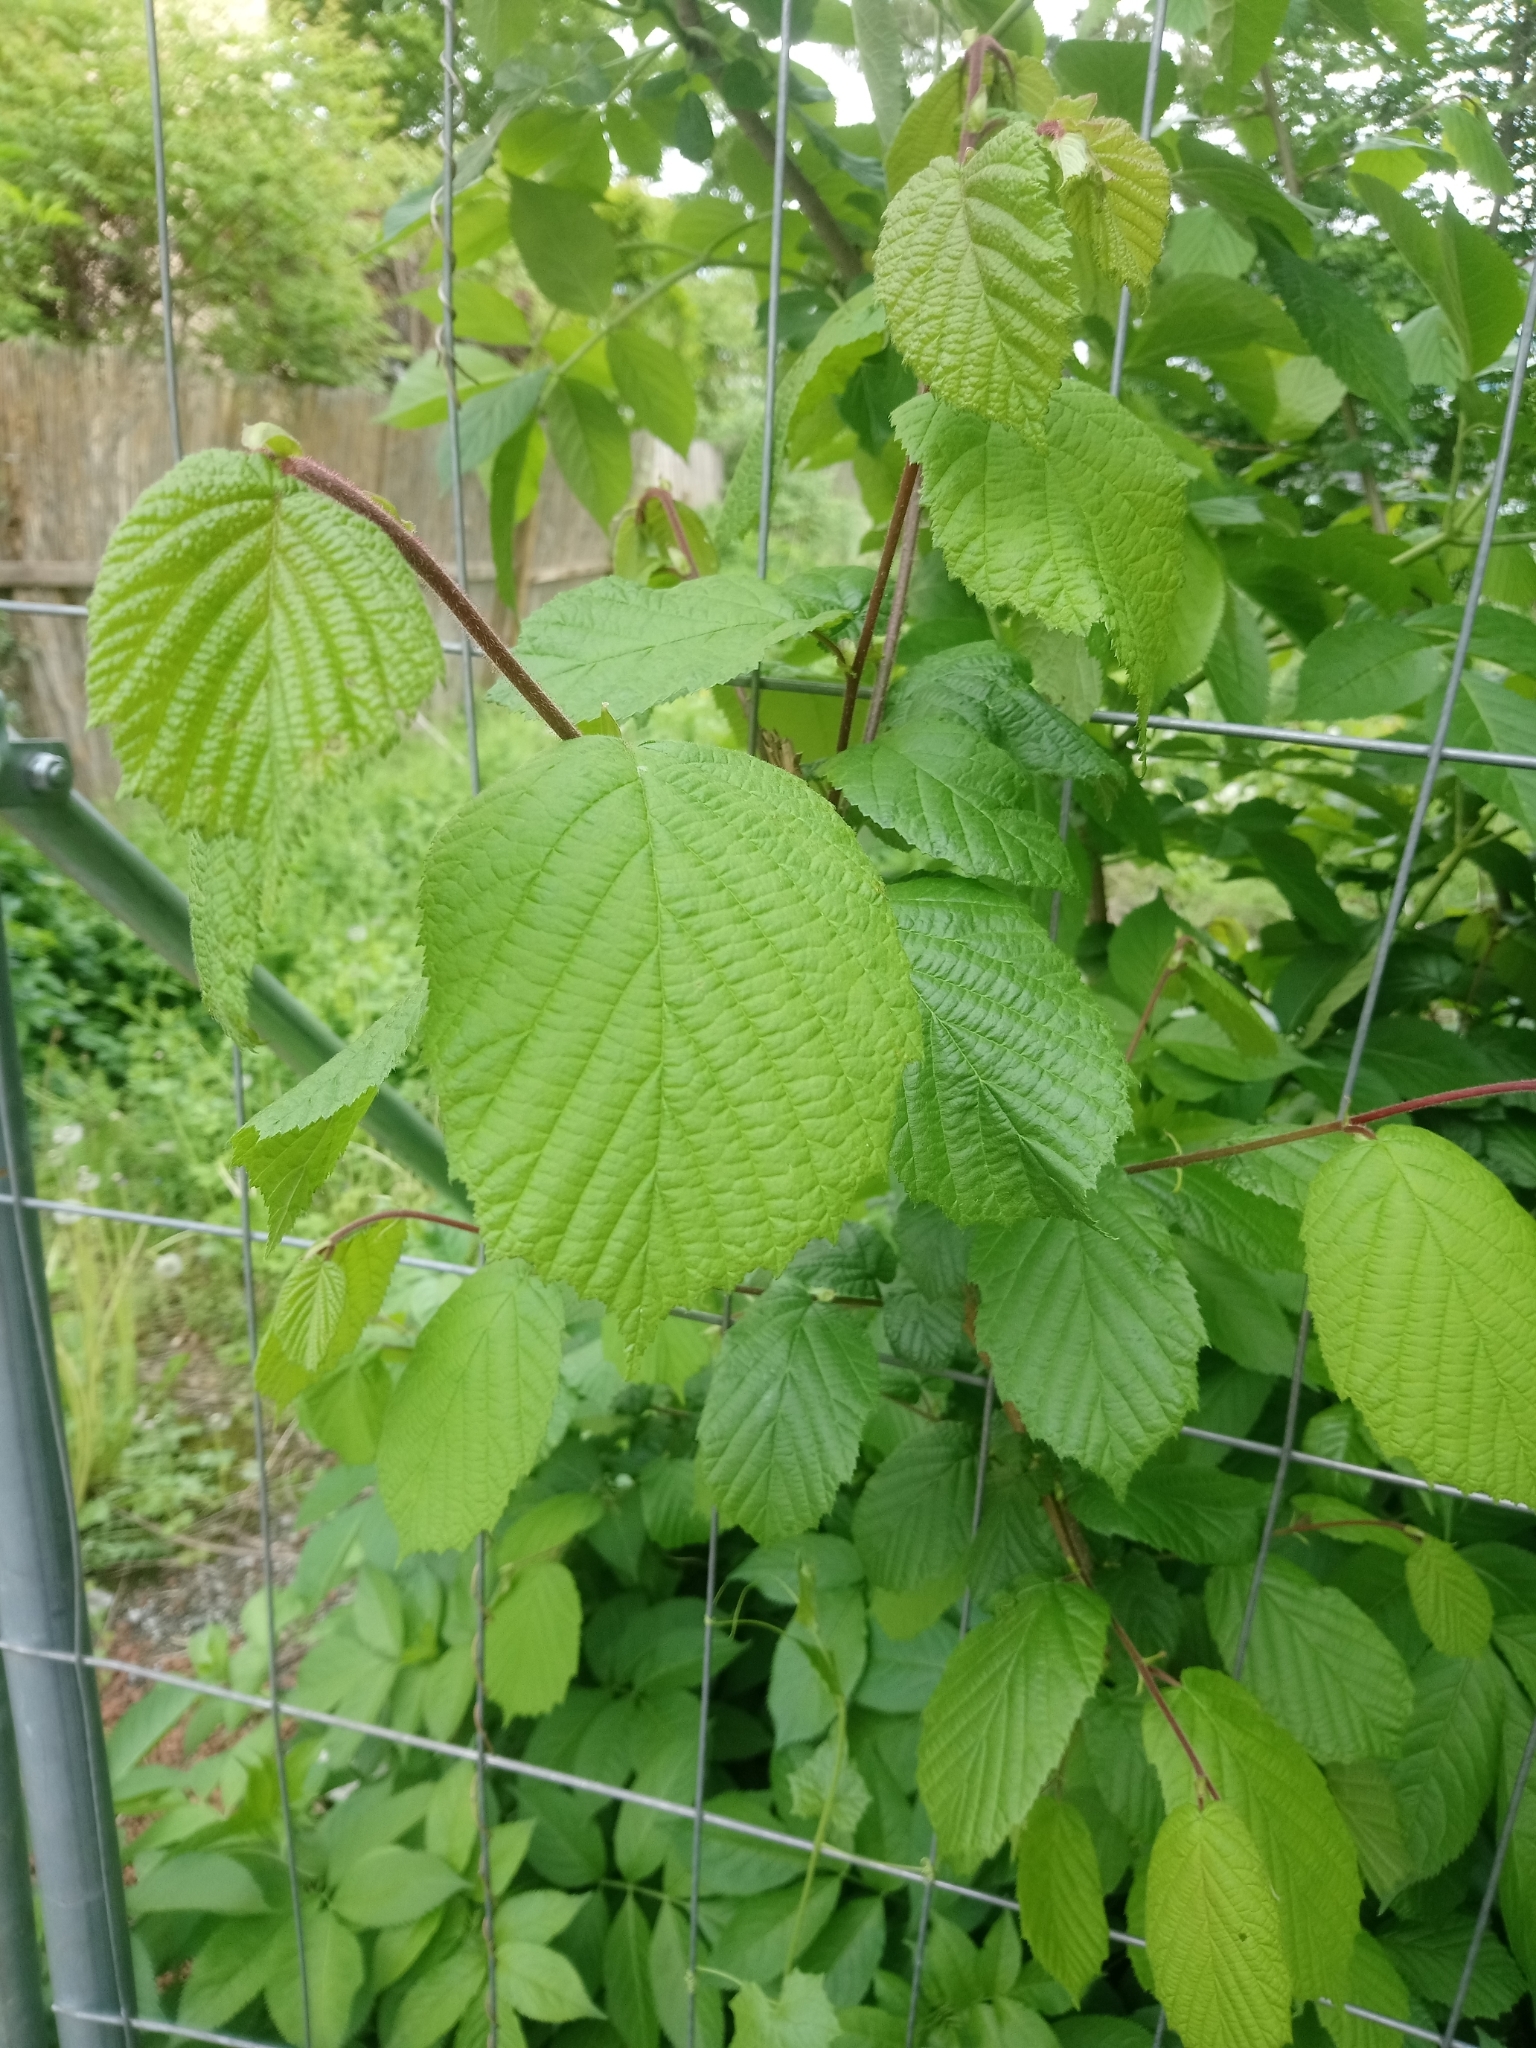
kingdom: Plantae
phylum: Tracheophyta
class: Magnoliopsida
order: Fagales
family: Betulaceae
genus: Corylus
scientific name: Corylus avellana
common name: European hazel
